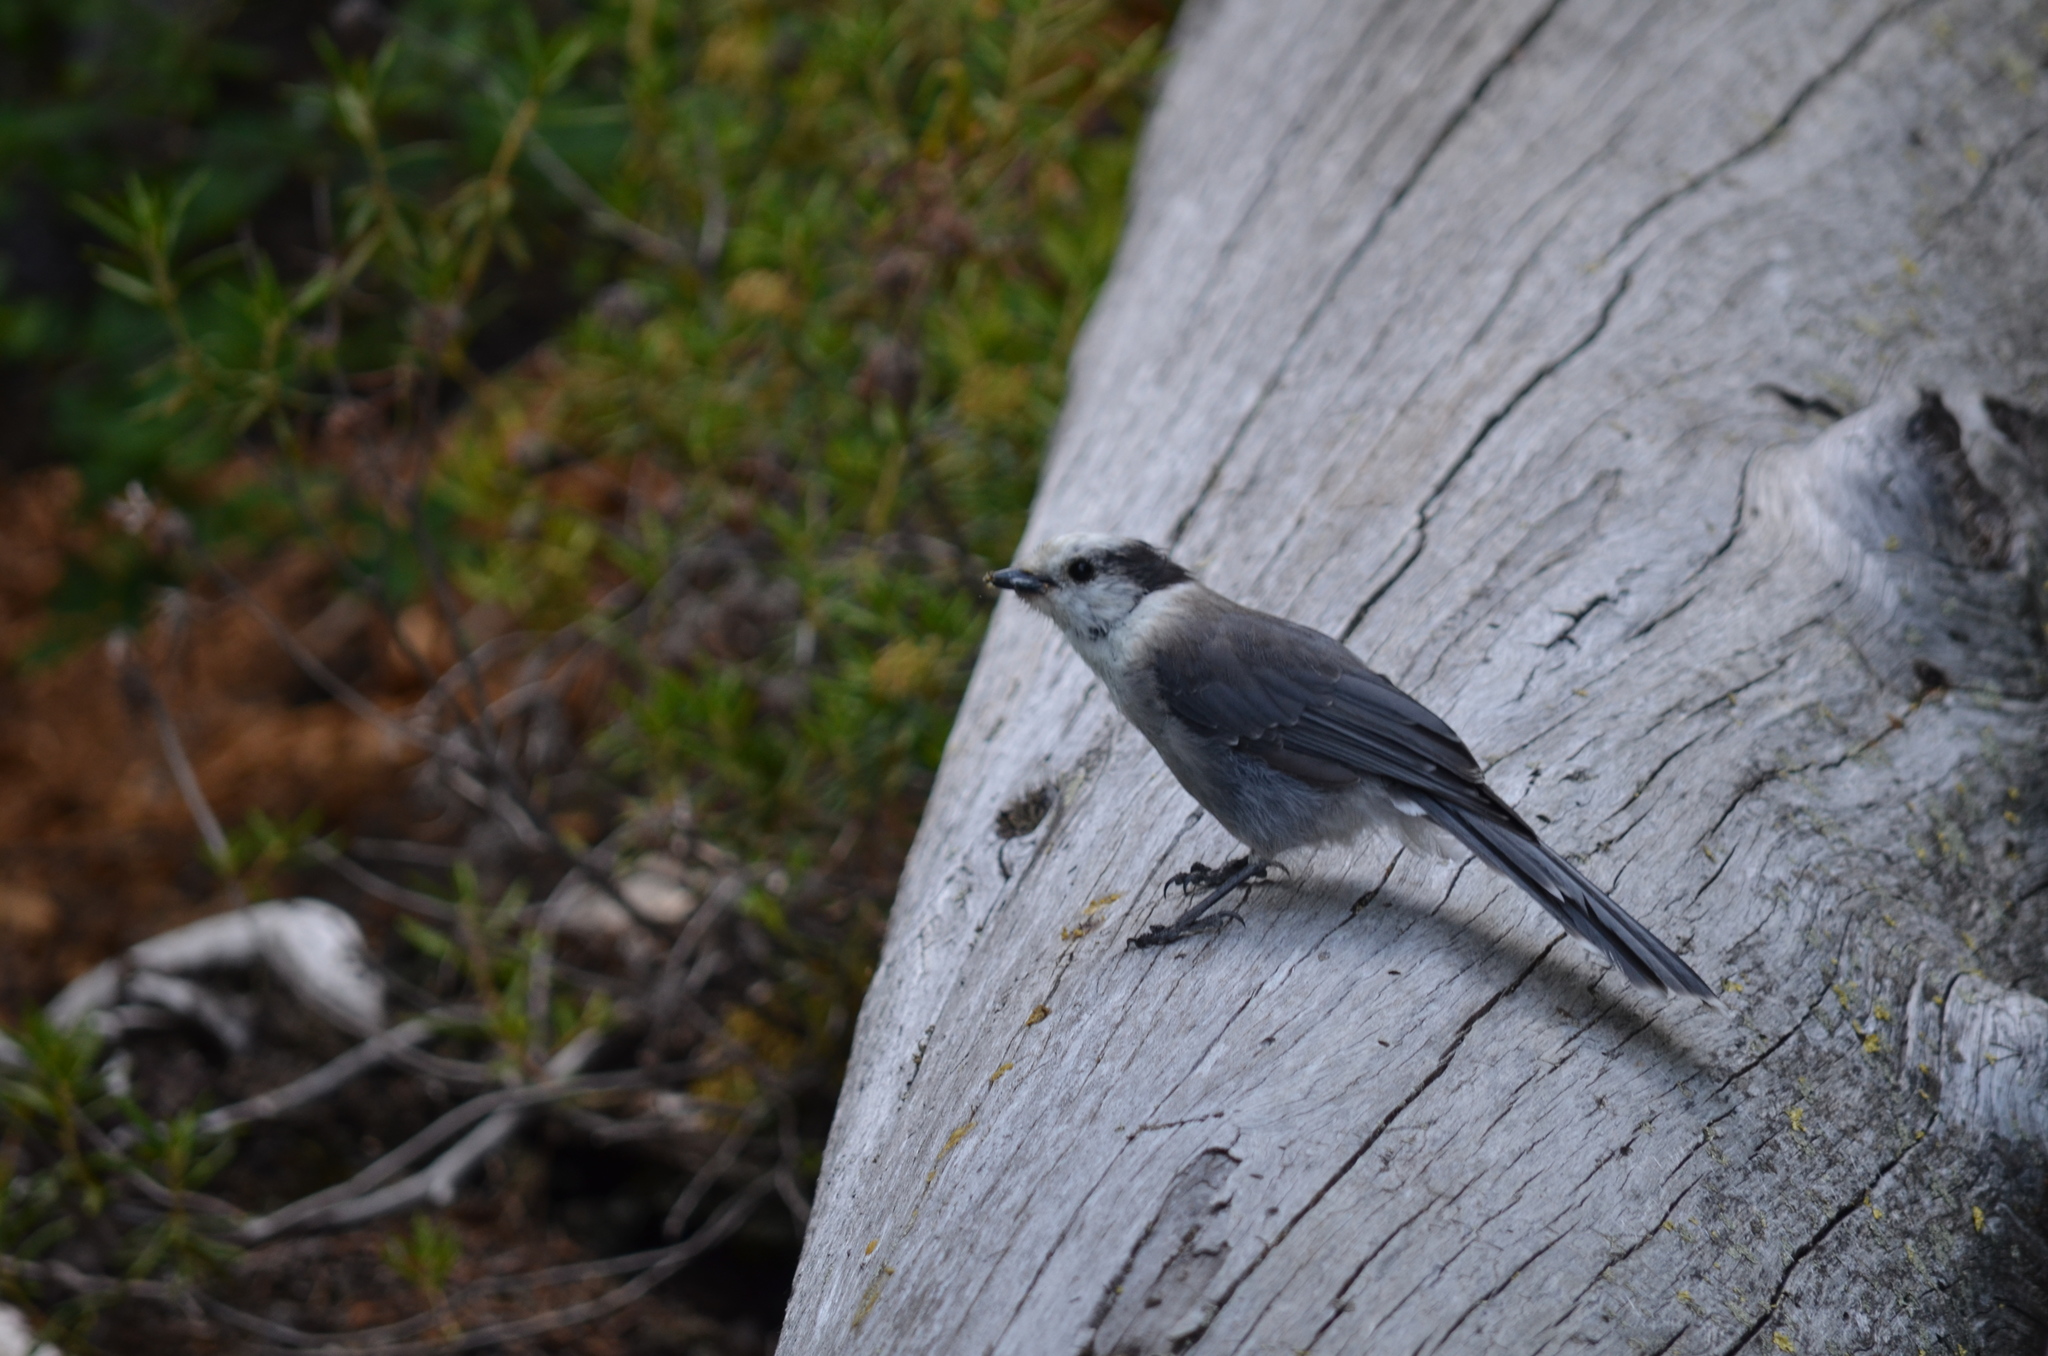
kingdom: Animalia
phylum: Chordata
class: Aves
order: Passeriformes
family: Corvidae
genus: Perisoreus
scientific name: Perisoreus canadensis
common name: Gray jay
